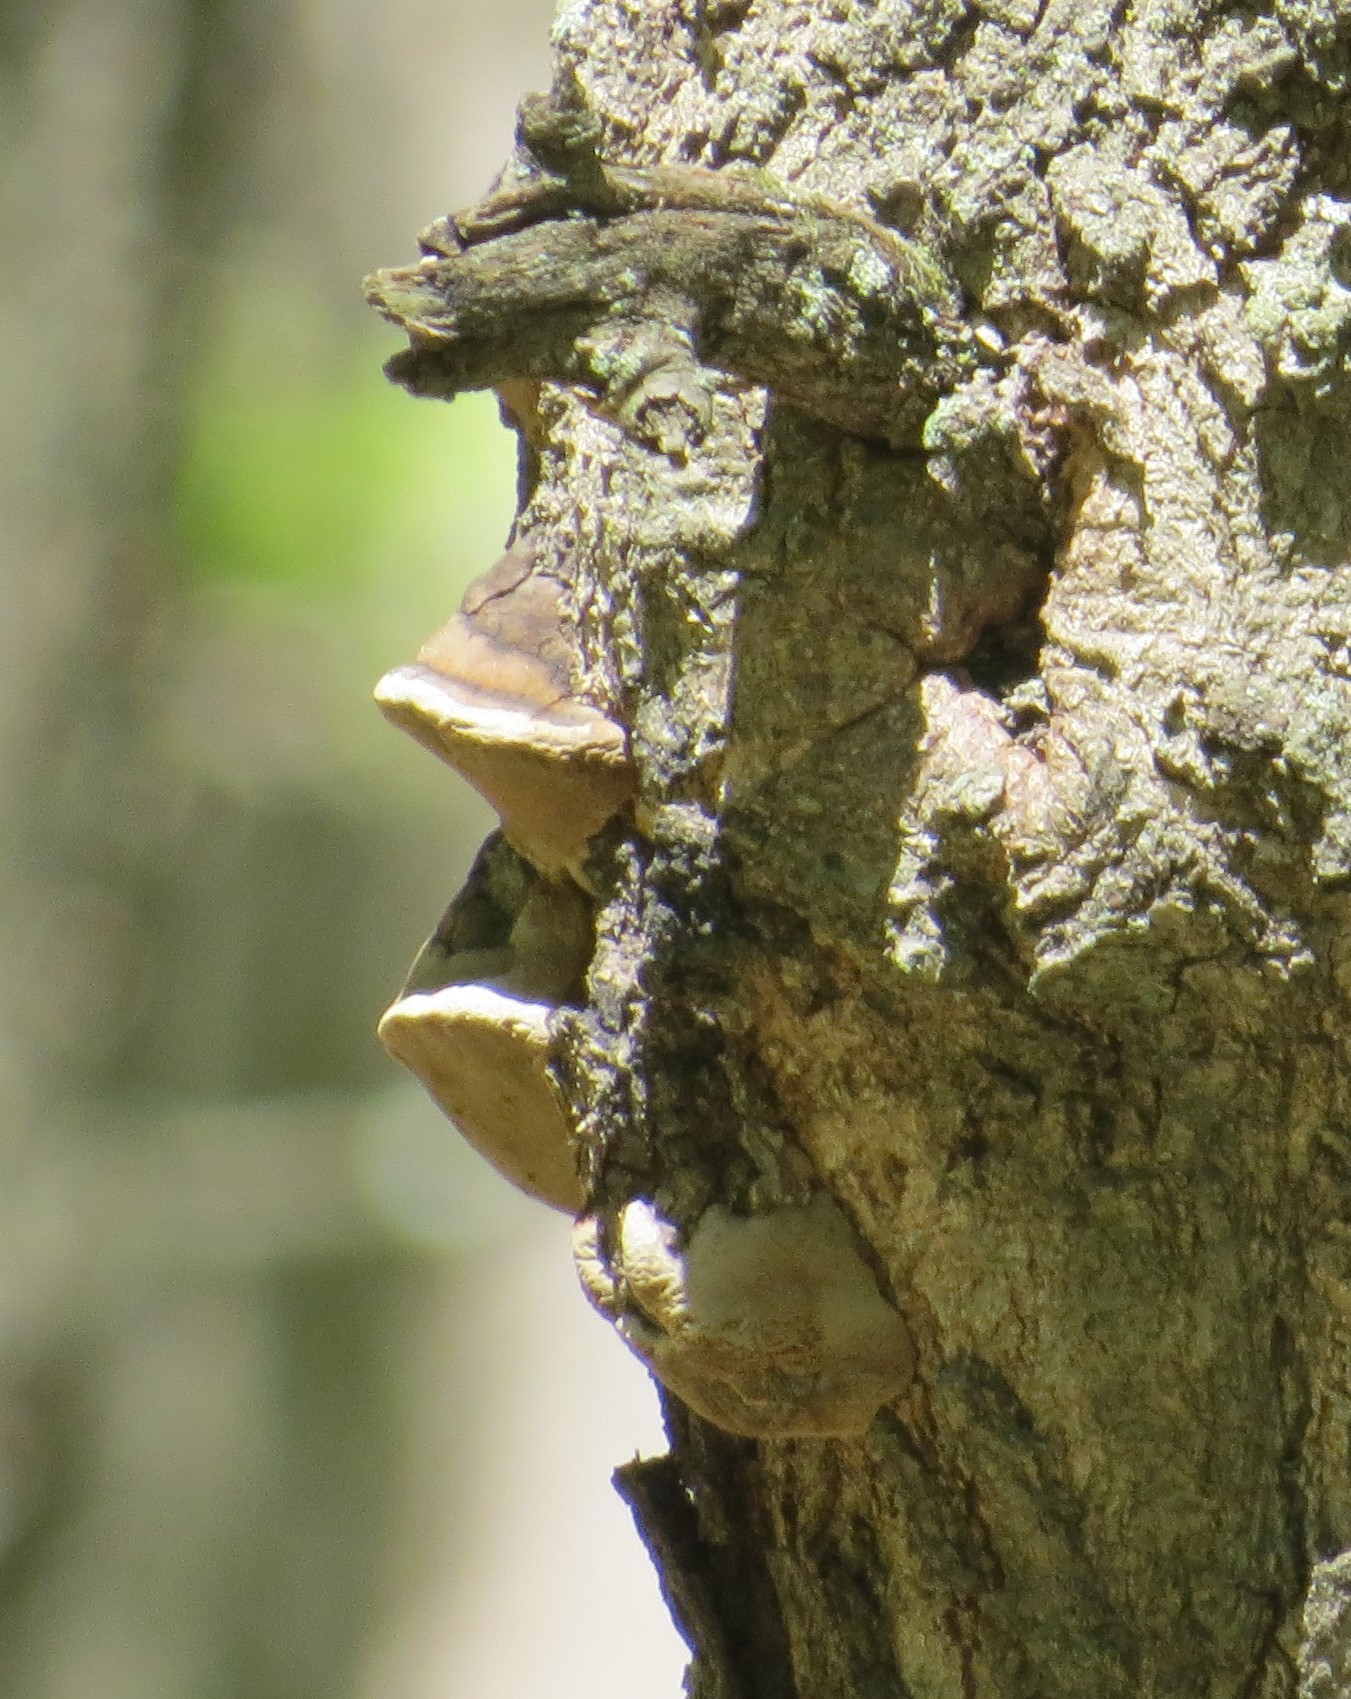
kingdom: Fungi
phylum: Basidiomycota
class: Agaricomycetes
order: Hymenochaetales
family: Hymenochaetaceae
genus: Phellinus
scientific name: Phellinus tremulae
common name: Aspen bracket
